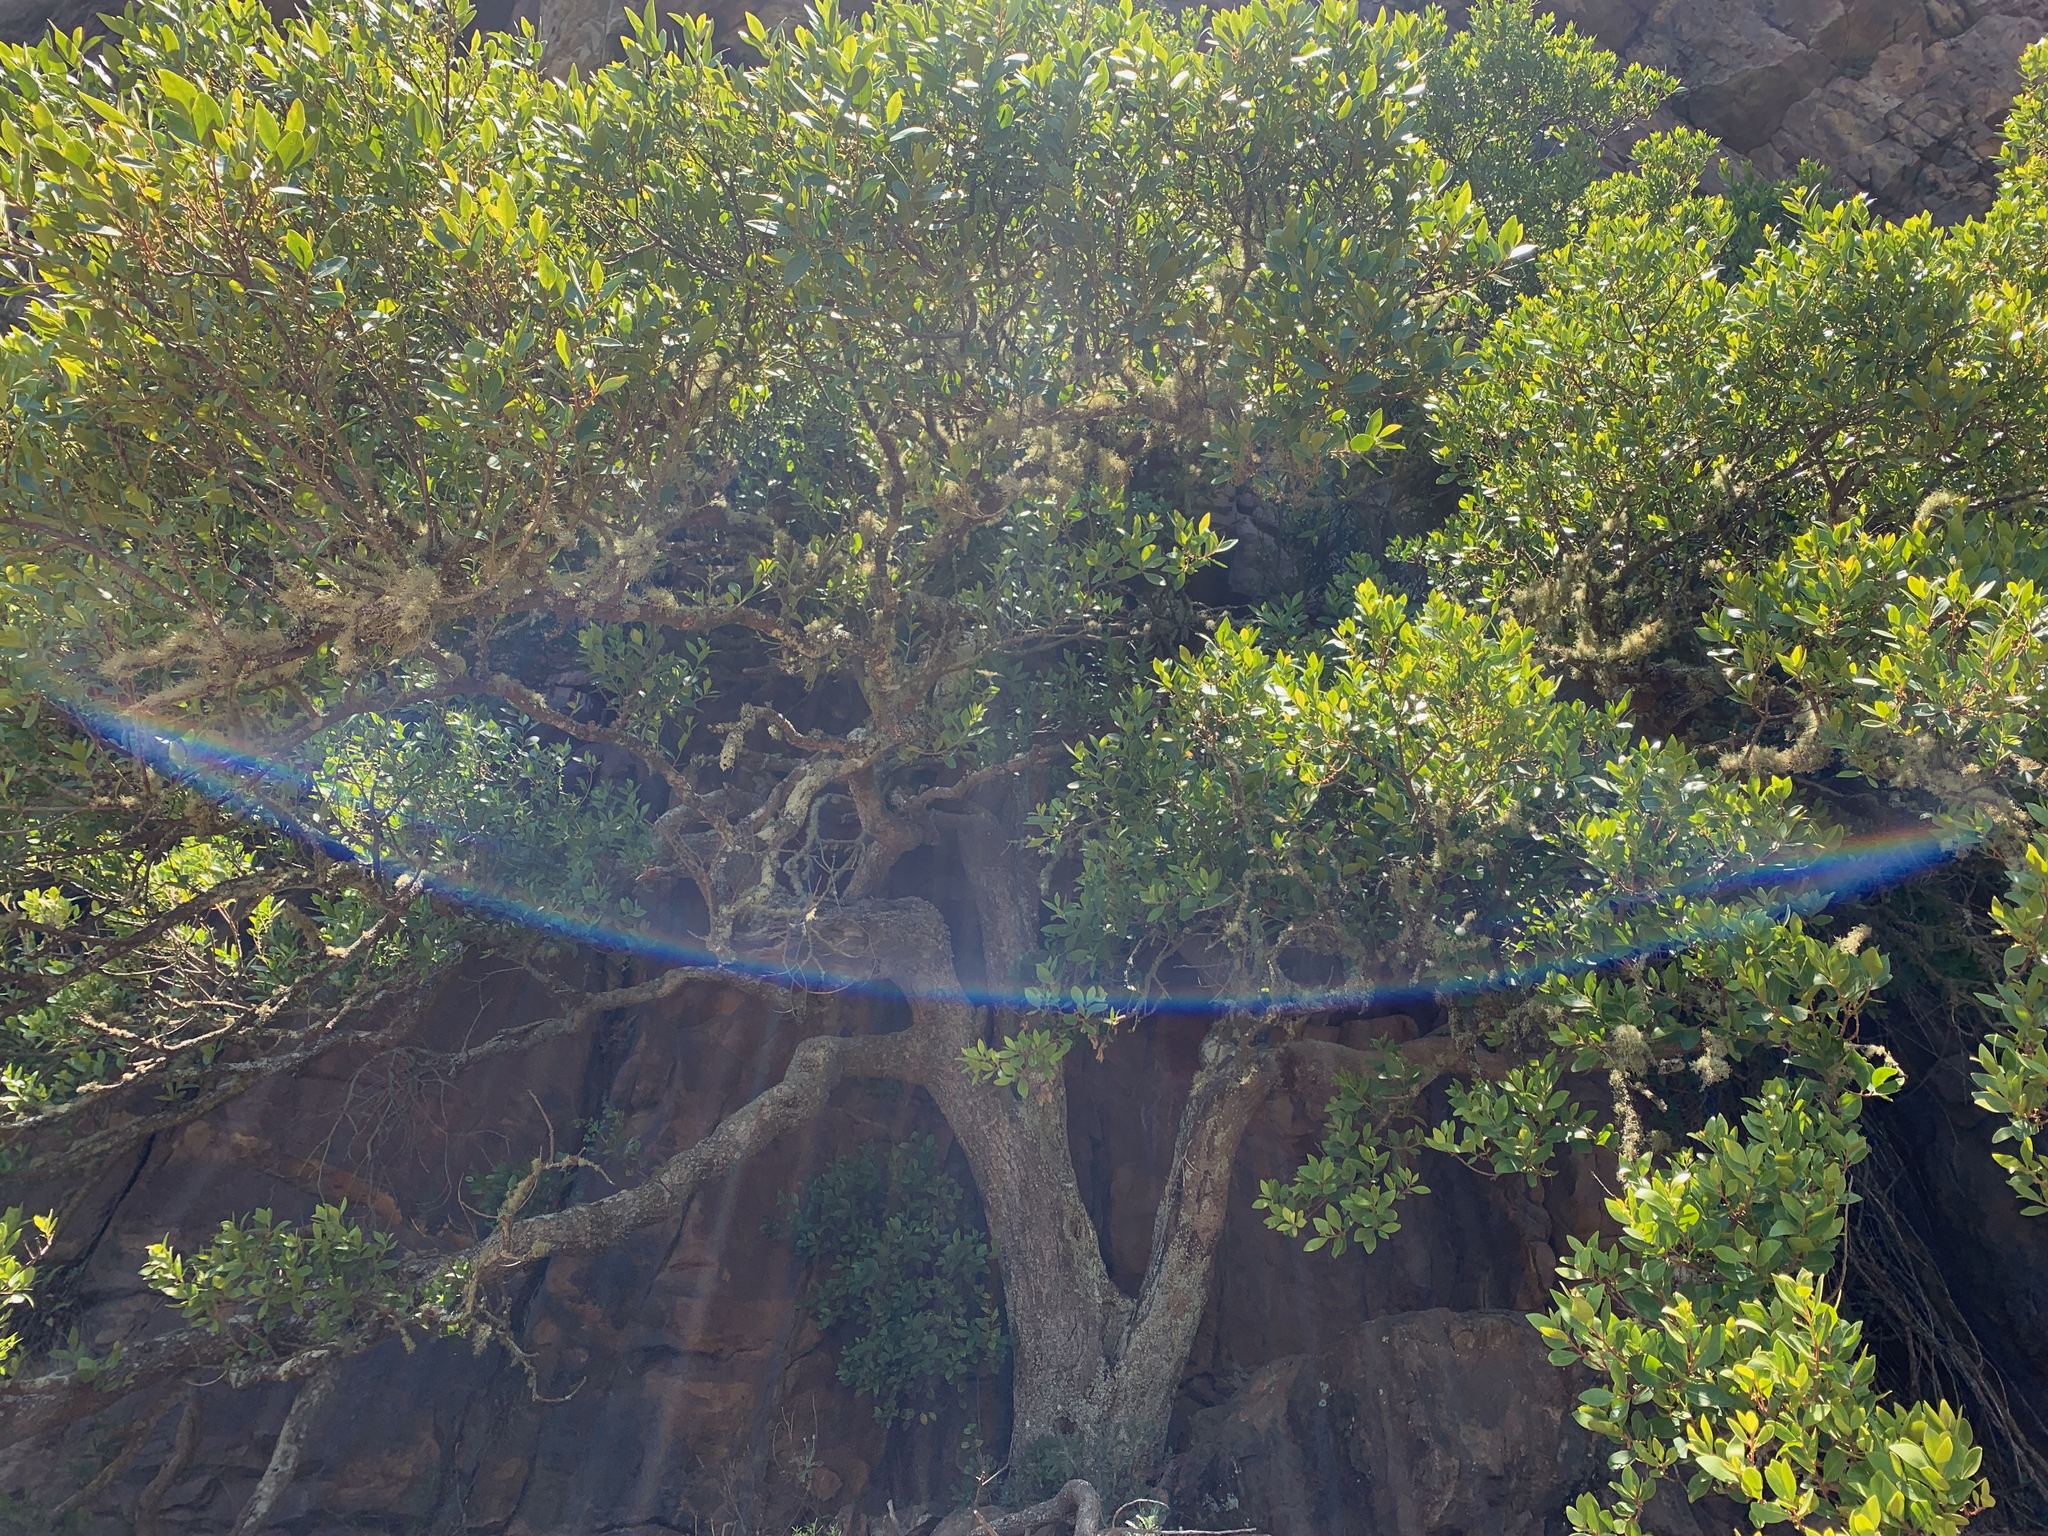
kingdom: Plantae
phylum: Tracheophyta
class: Magnoliopsida
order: Celastrales
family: Celastraceae
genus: Gymnosporia
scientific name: Gymnosporia laurina
